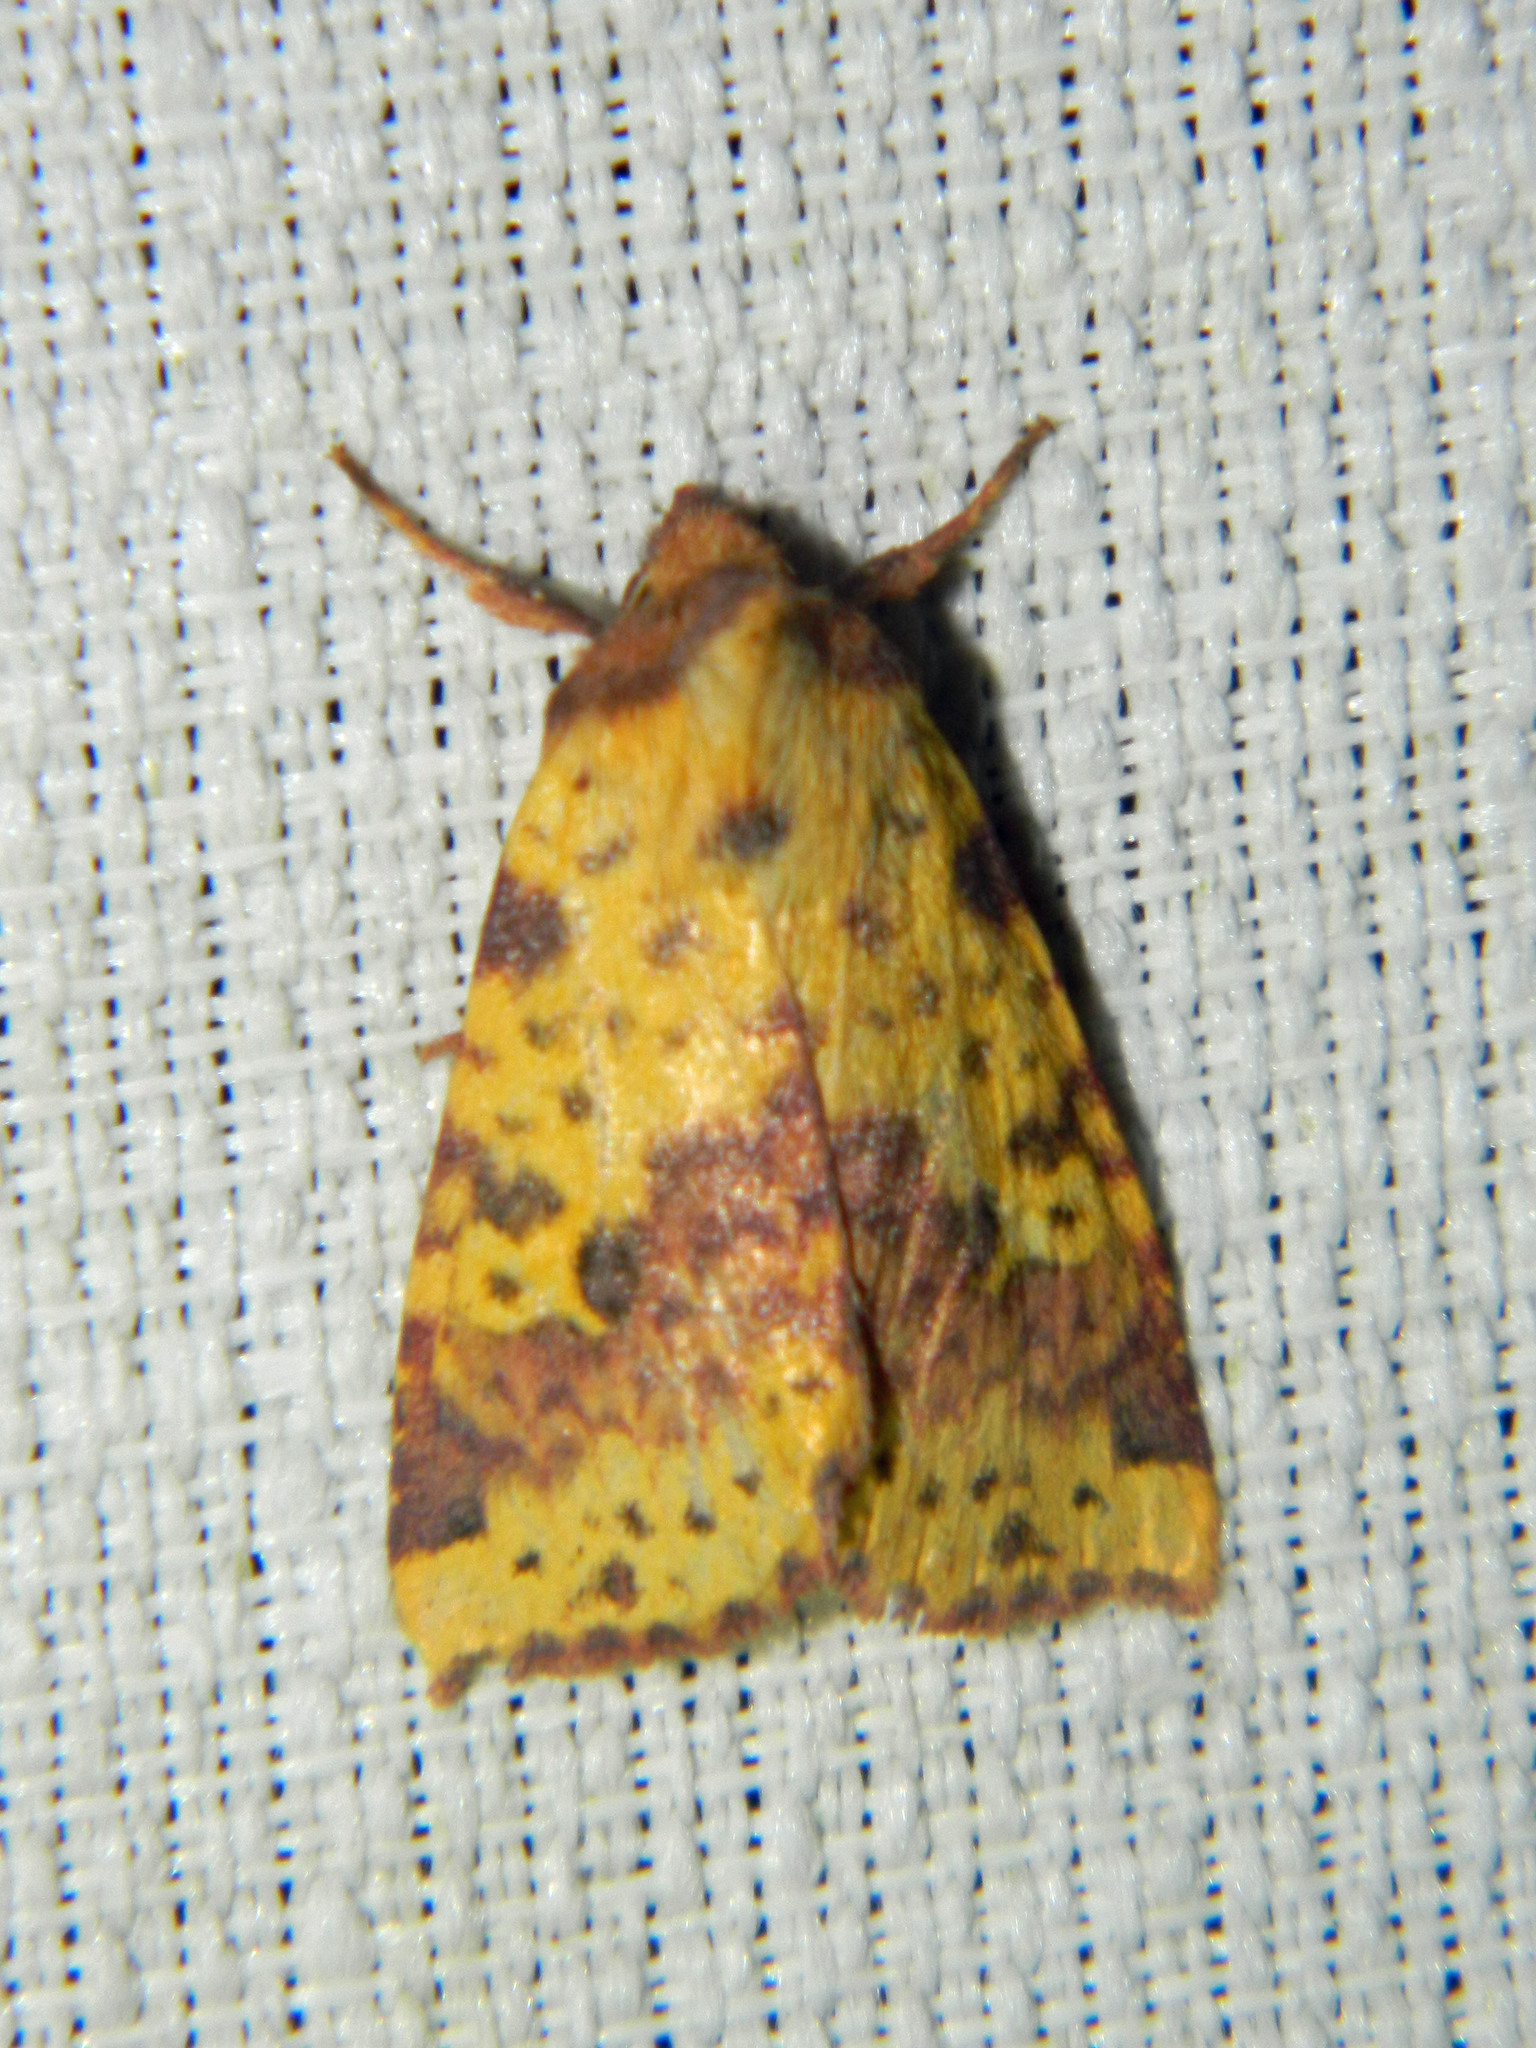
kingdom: Animalia
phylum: Arthropoda
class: Insecta
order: Lepidoptera
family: Noctuidae
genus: Xanthia
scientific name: Xanthia tatago
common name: Pink-banded sallow
